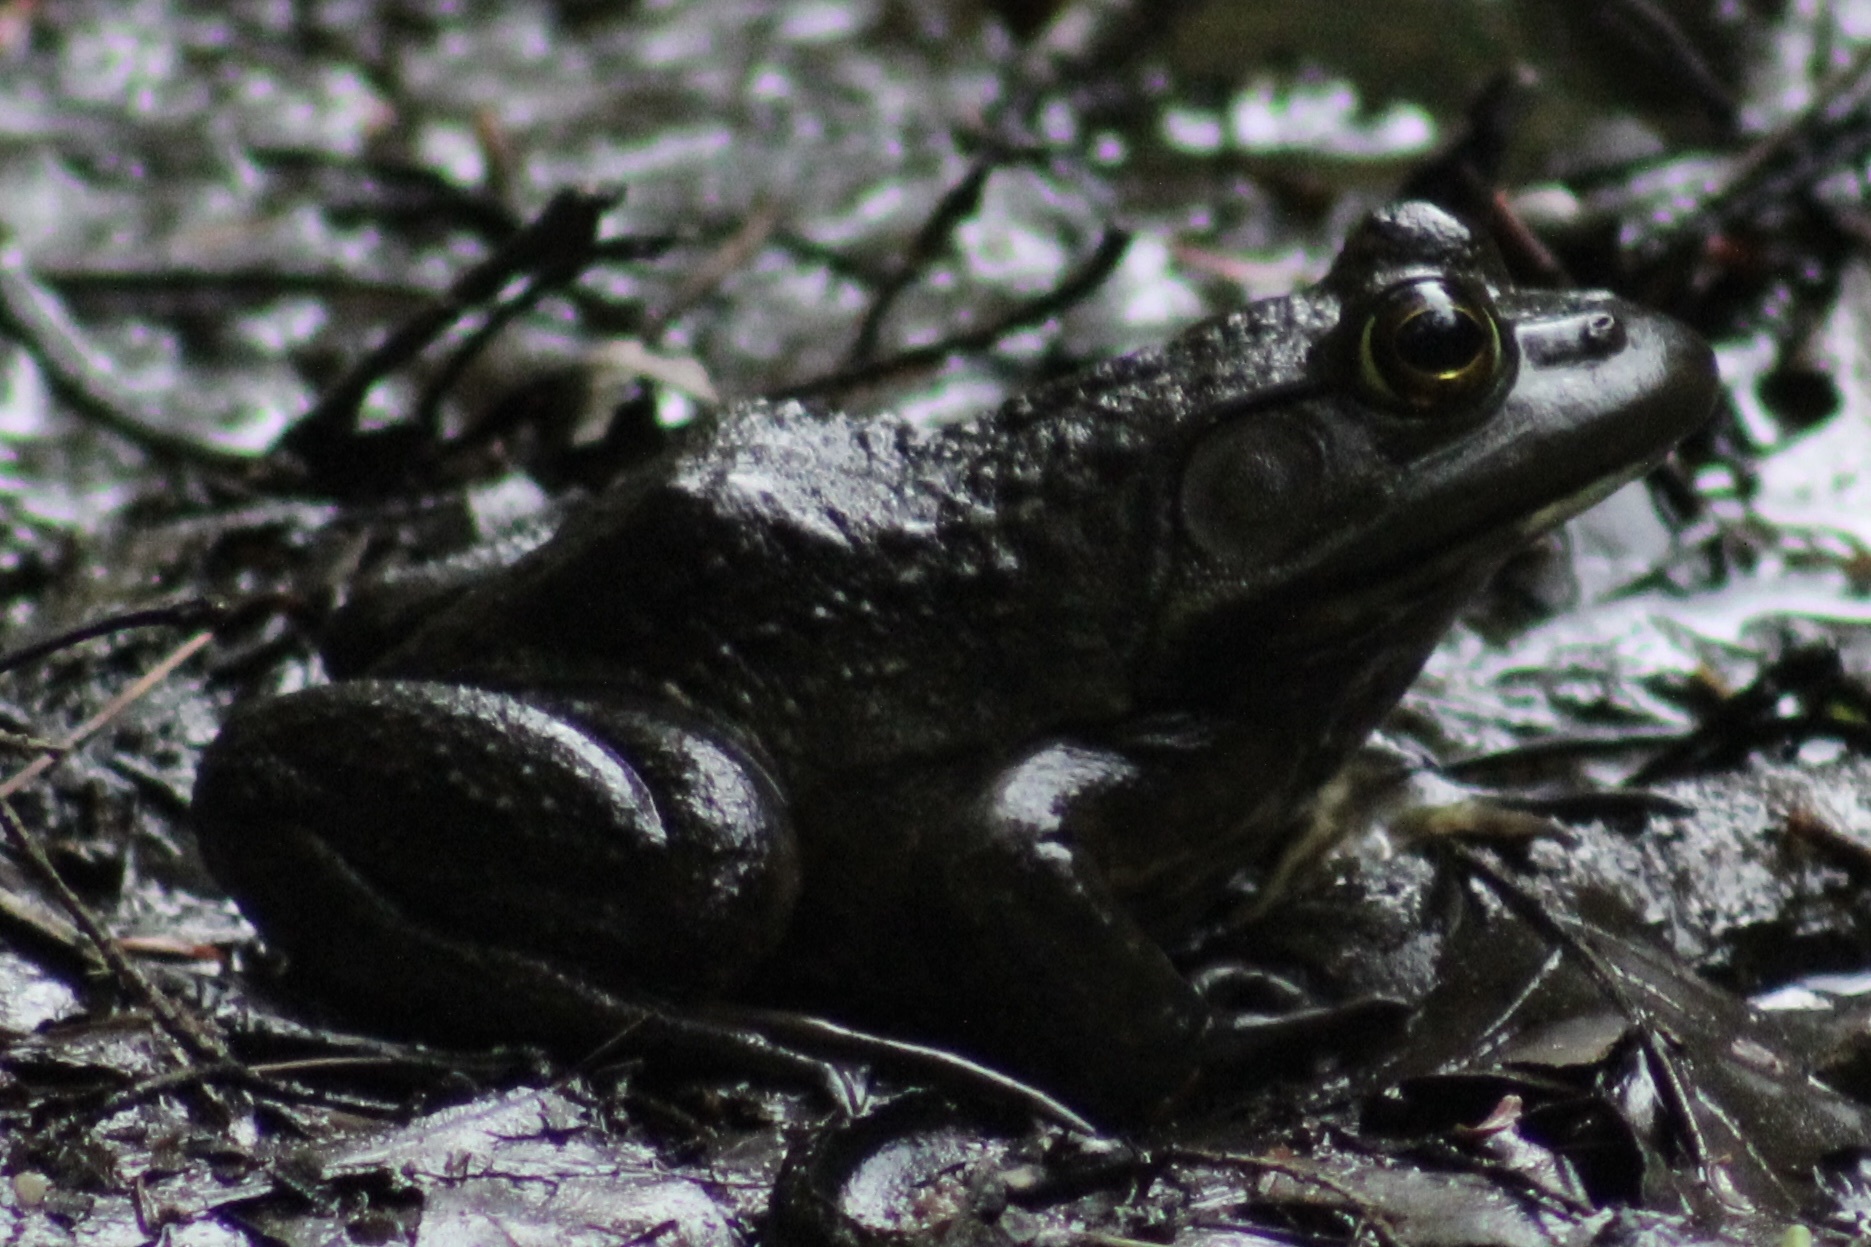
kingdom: Animalia
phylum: Chordata
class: Amphibia
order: Anura
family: Ranidae
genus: Lithobates
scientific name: Lithobates catesbeianus
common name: American bullfrog
